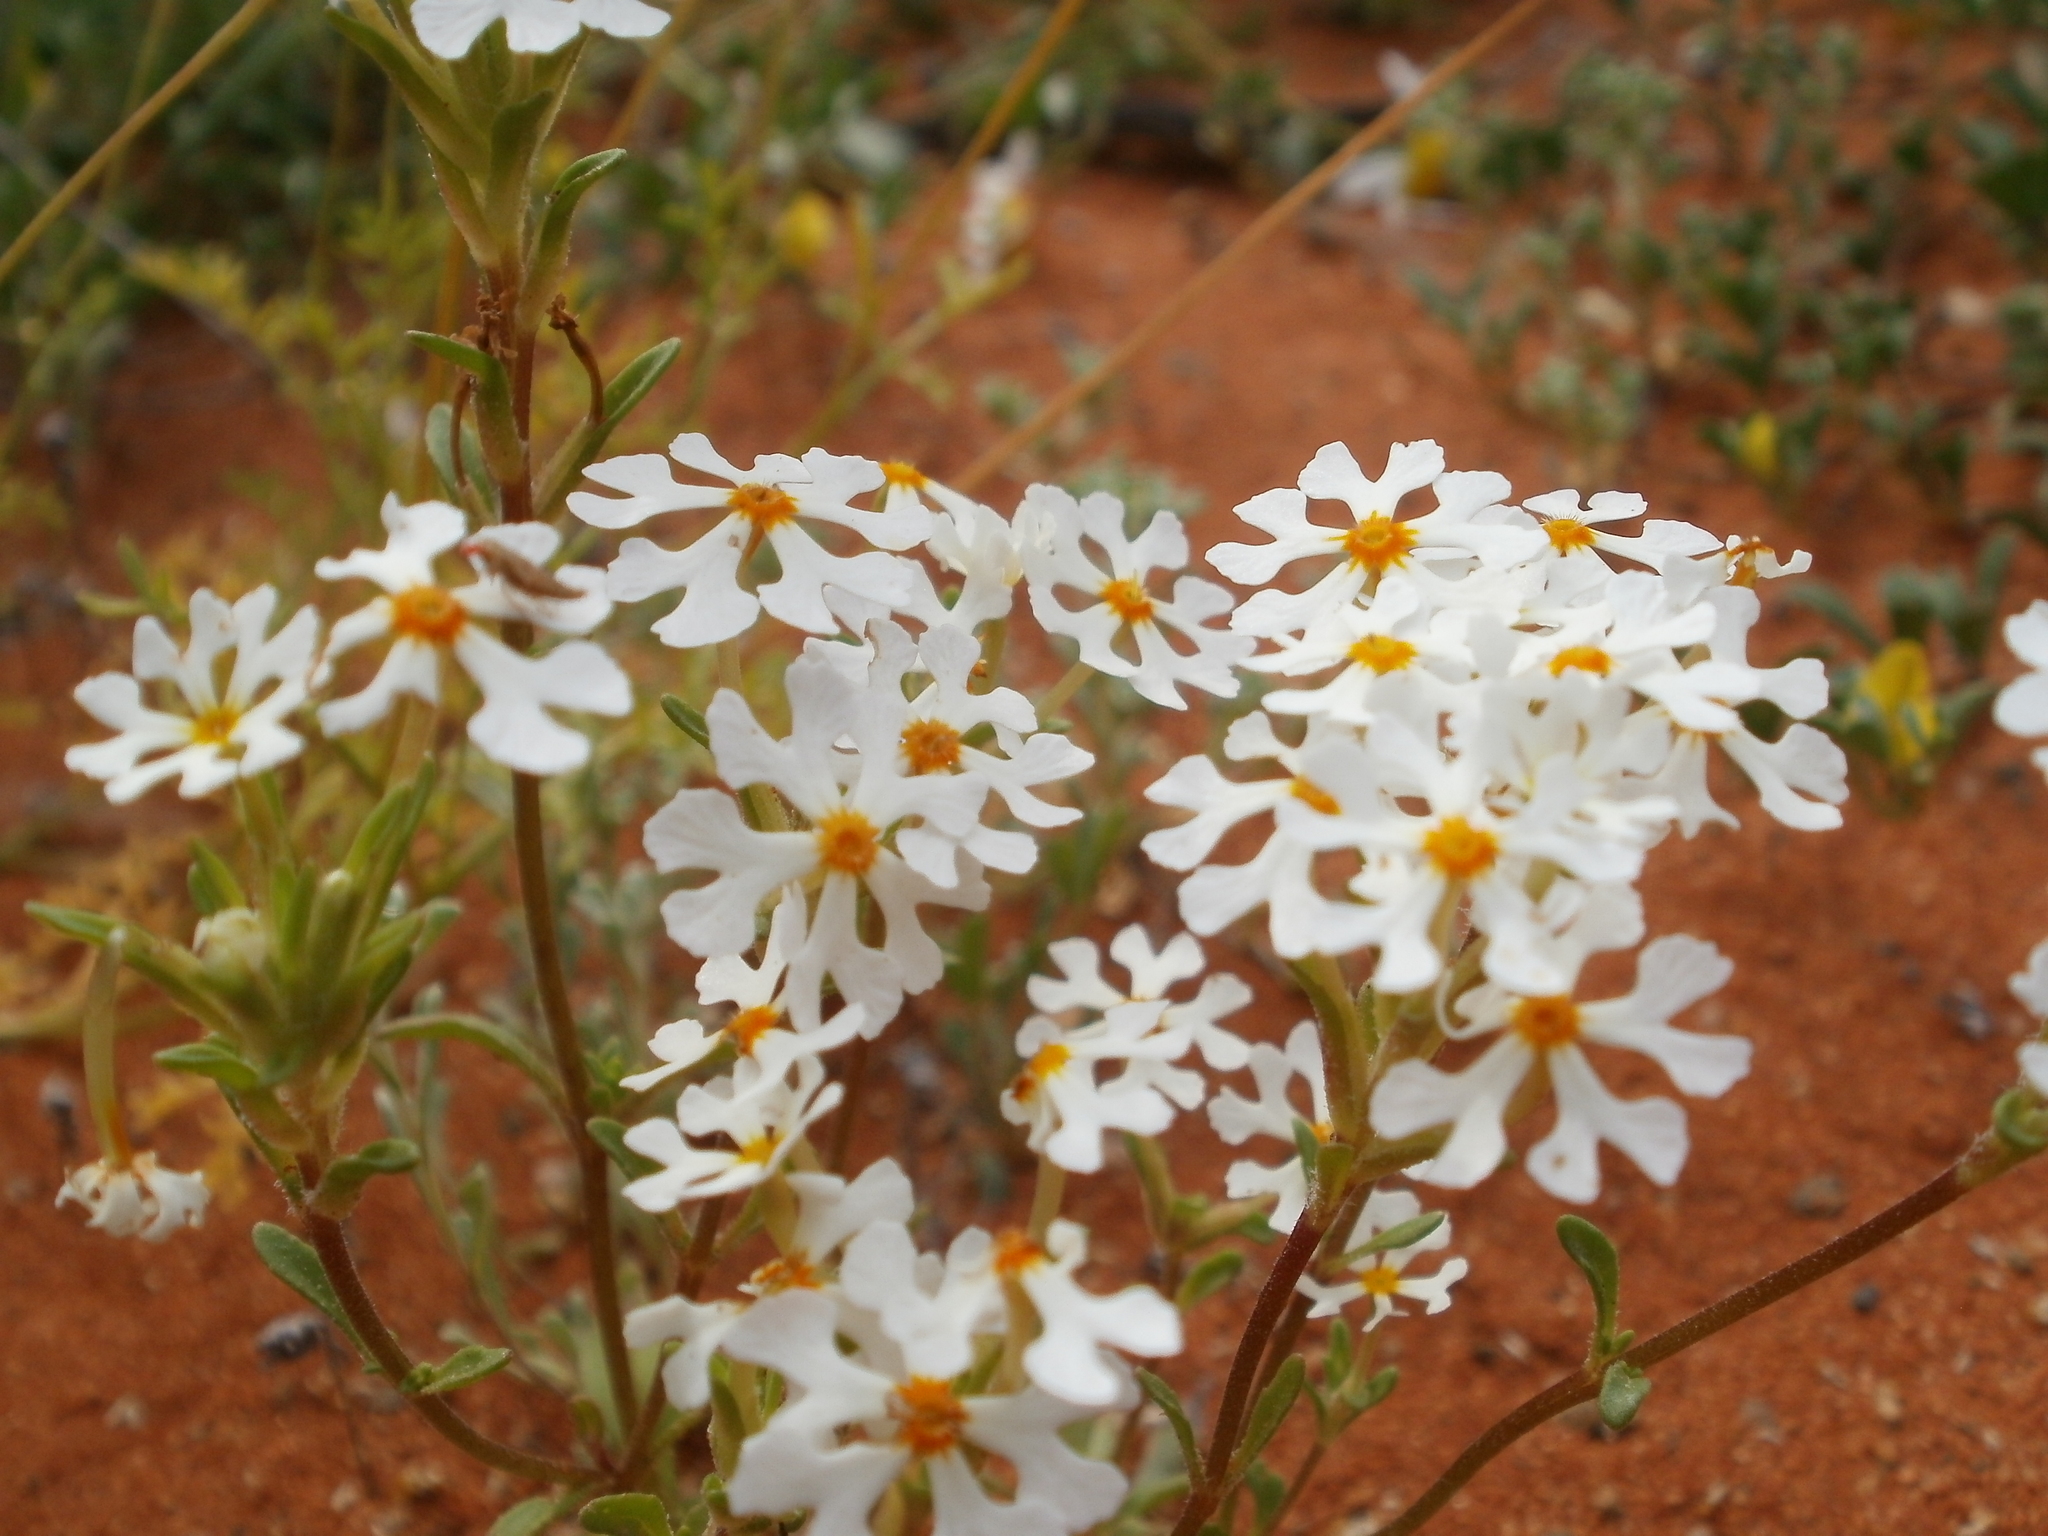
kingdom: Plantae
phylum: Tracheophyta
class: Magnoliopsida
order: Lamiales
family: Scrophulariaceae
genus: Zaluzianskya
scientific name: Zaluzianskya affinis
